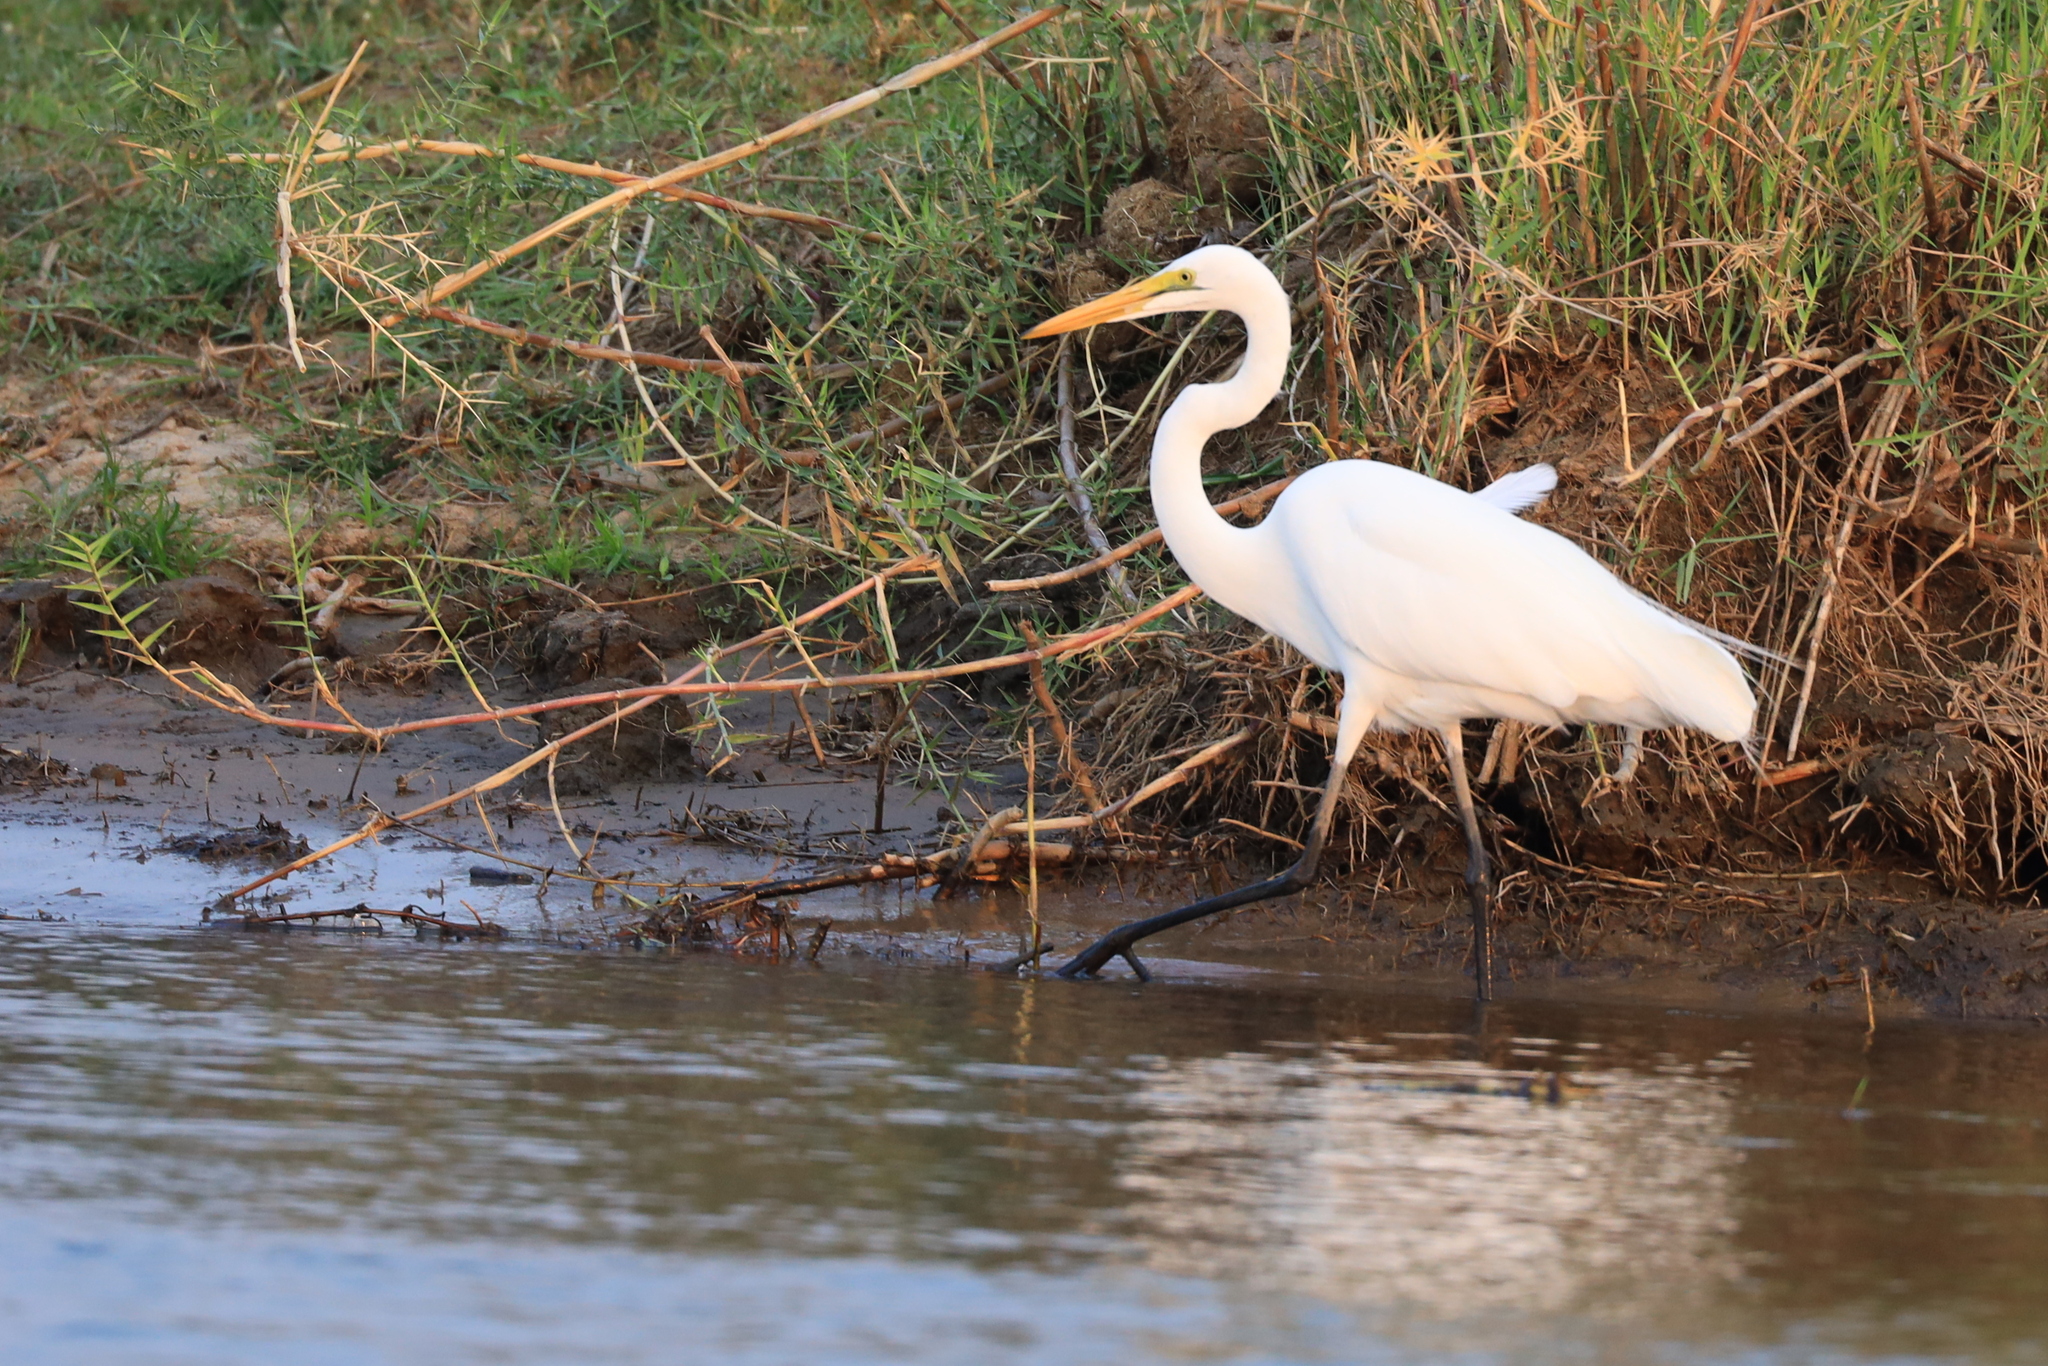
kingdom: Animalia
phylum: Chordata
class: Aves
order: Pelecaniformes
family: Ardeidae
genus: Ardea
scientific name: Ardea alba
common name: Great egret
